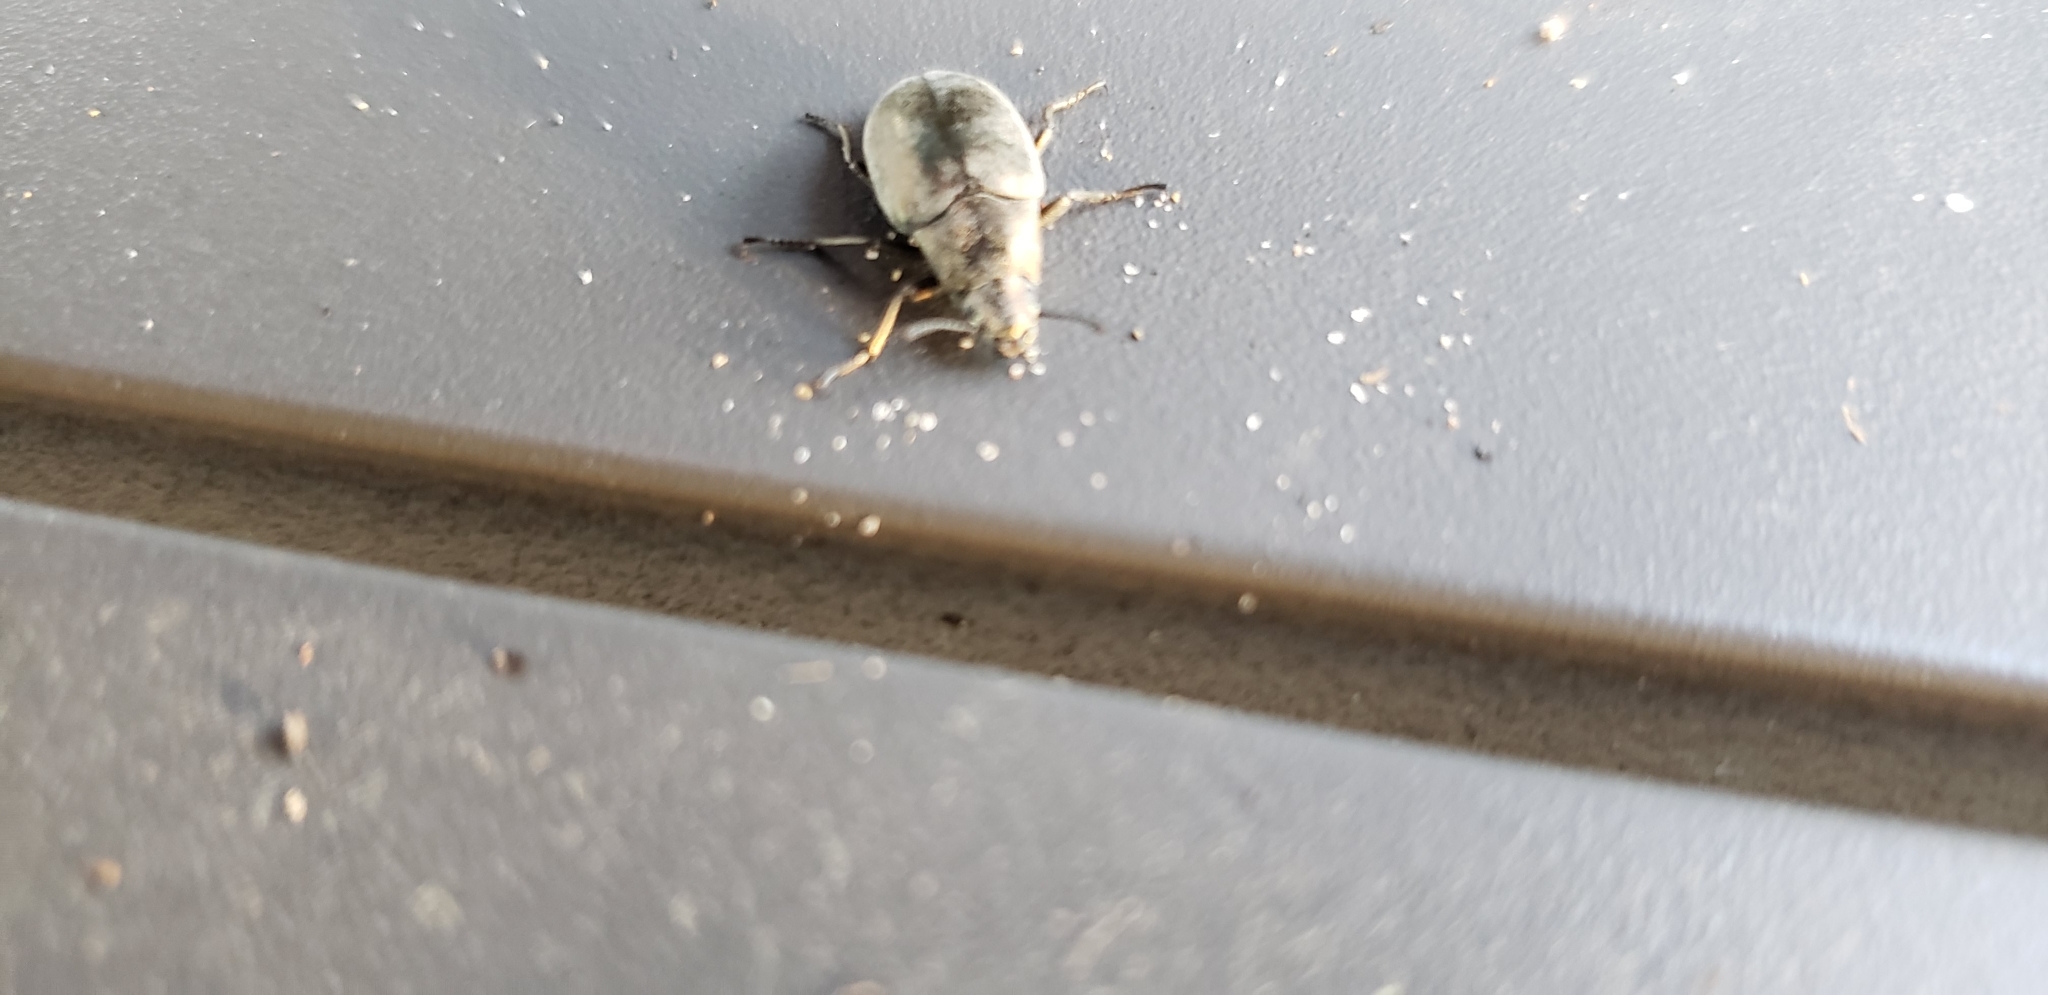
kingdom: Animalia
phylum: Arthropoda
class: Insecta
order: Coleoptera
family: Tenebrionidae
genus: Bothrotes
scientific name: Bothrotes canaliculatus
